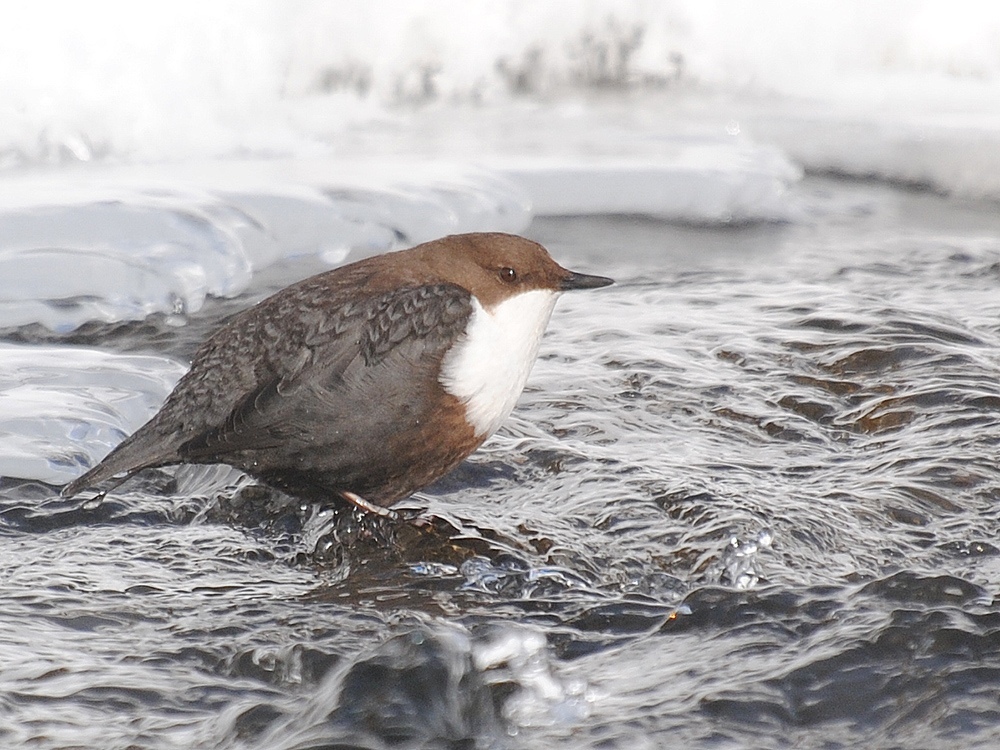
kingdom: Animalia
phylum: Chordata
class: Aves
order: Passeriformes
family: Cinclidae
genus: Cinclus
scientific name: Cinclus cinclus
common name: White-throated dipper
